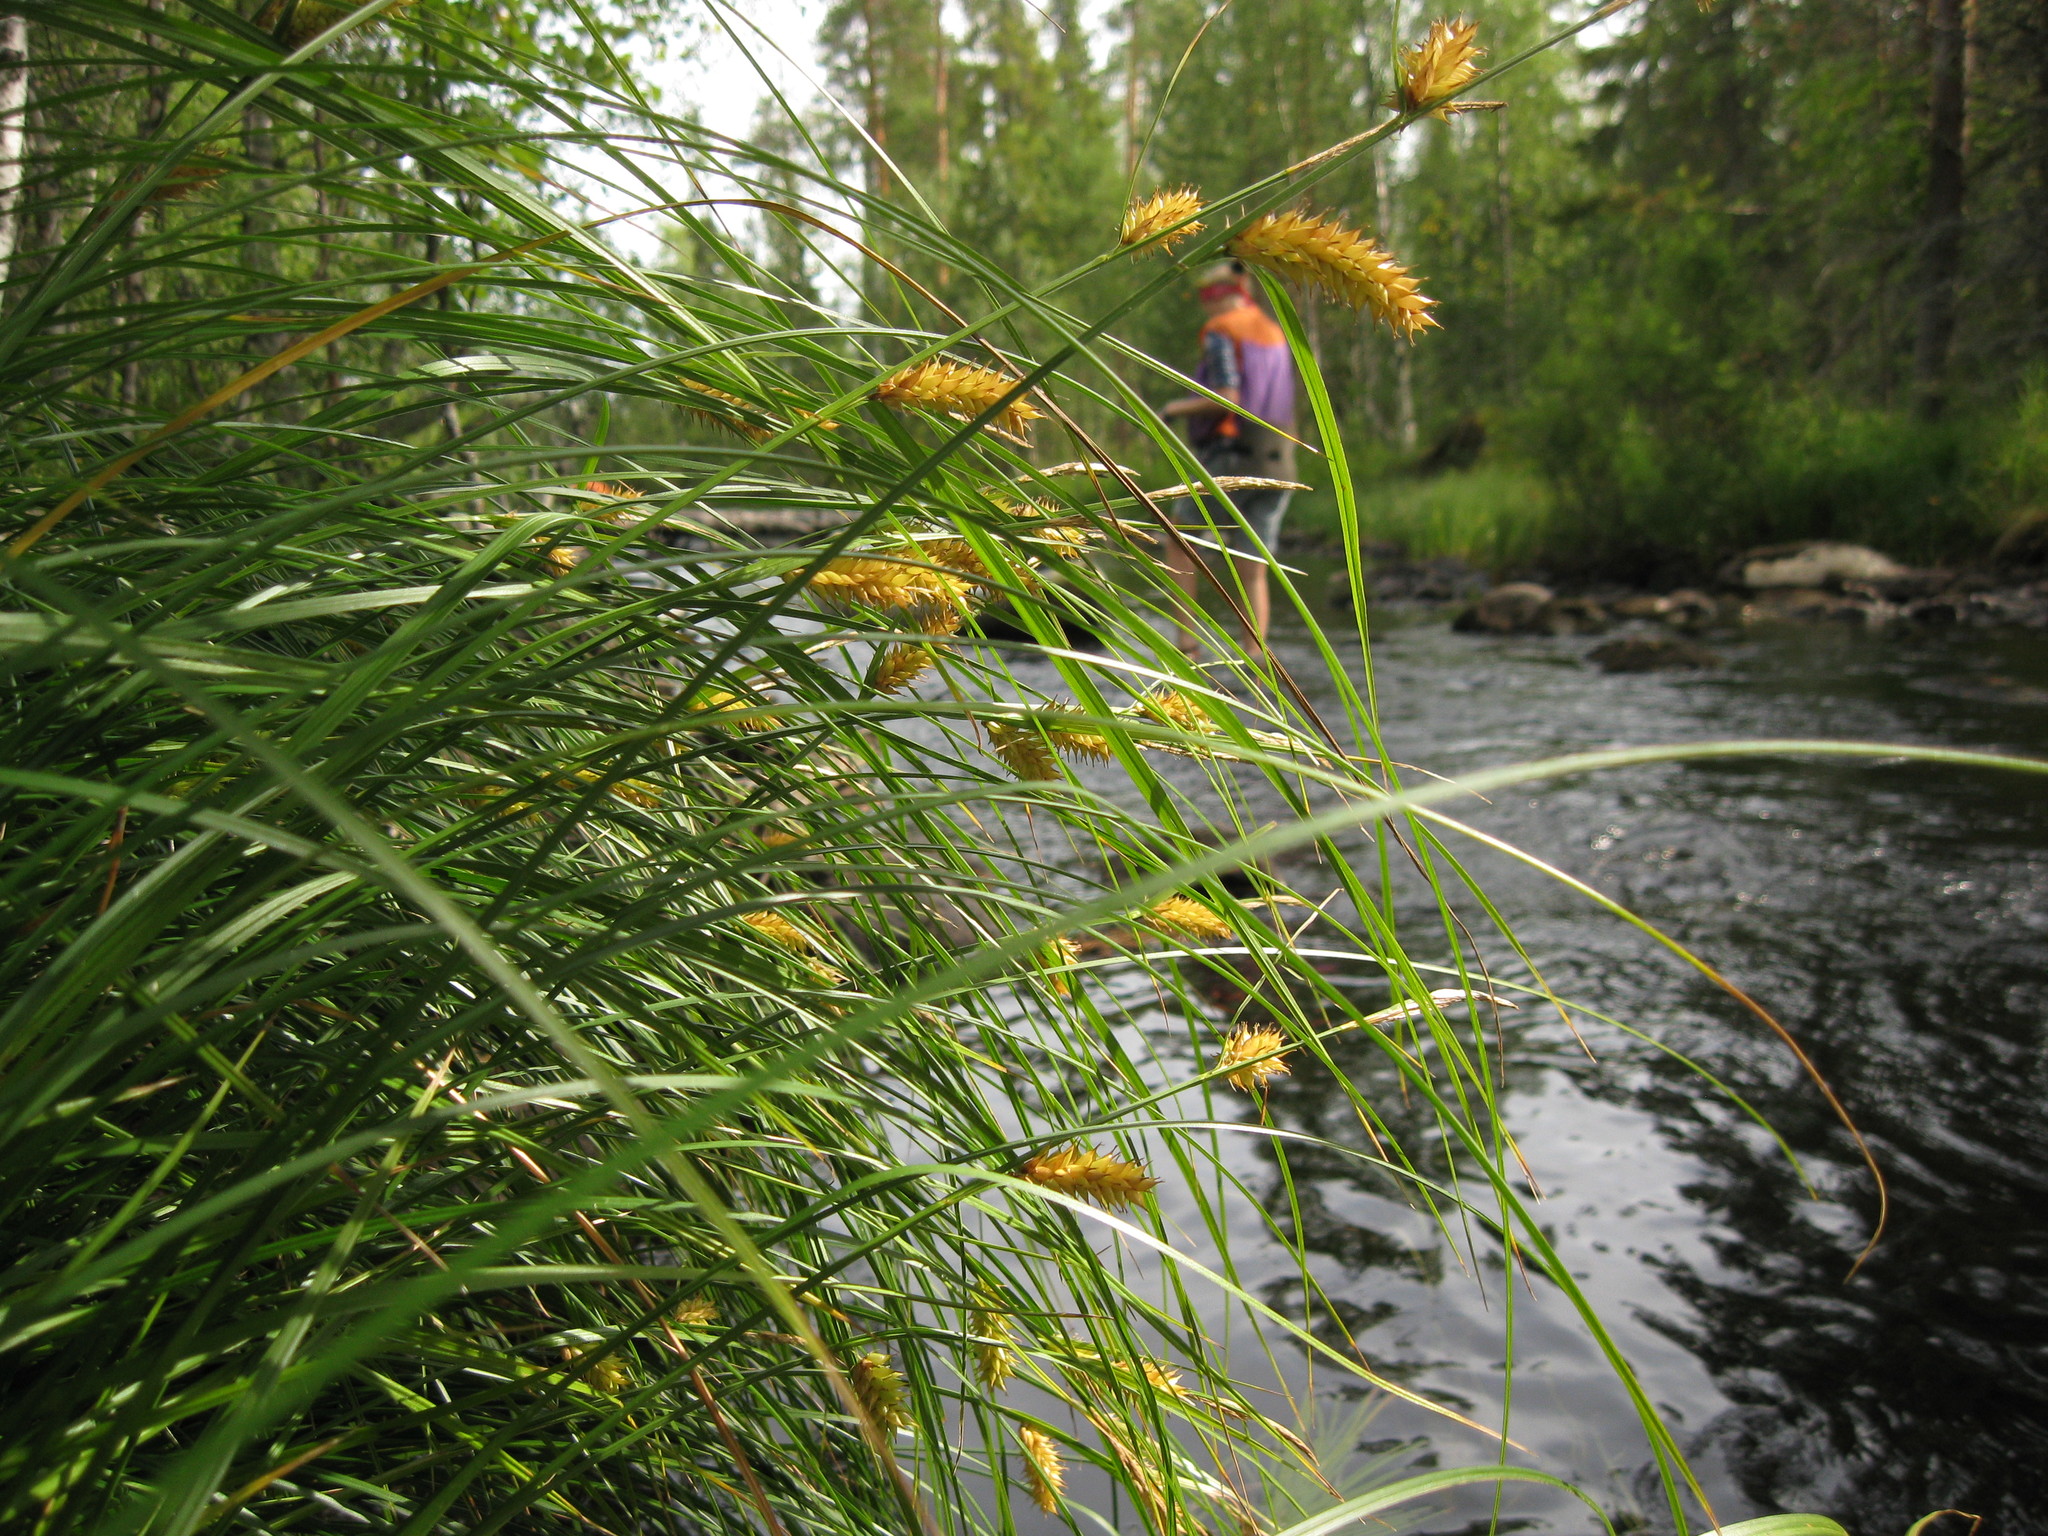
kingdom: Plantae
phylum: Tracheophyta
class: Liliopsida
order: Poales
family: Cyperaceae
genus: Carex
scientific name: Carex vesicaria
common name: Bladder-sedge
